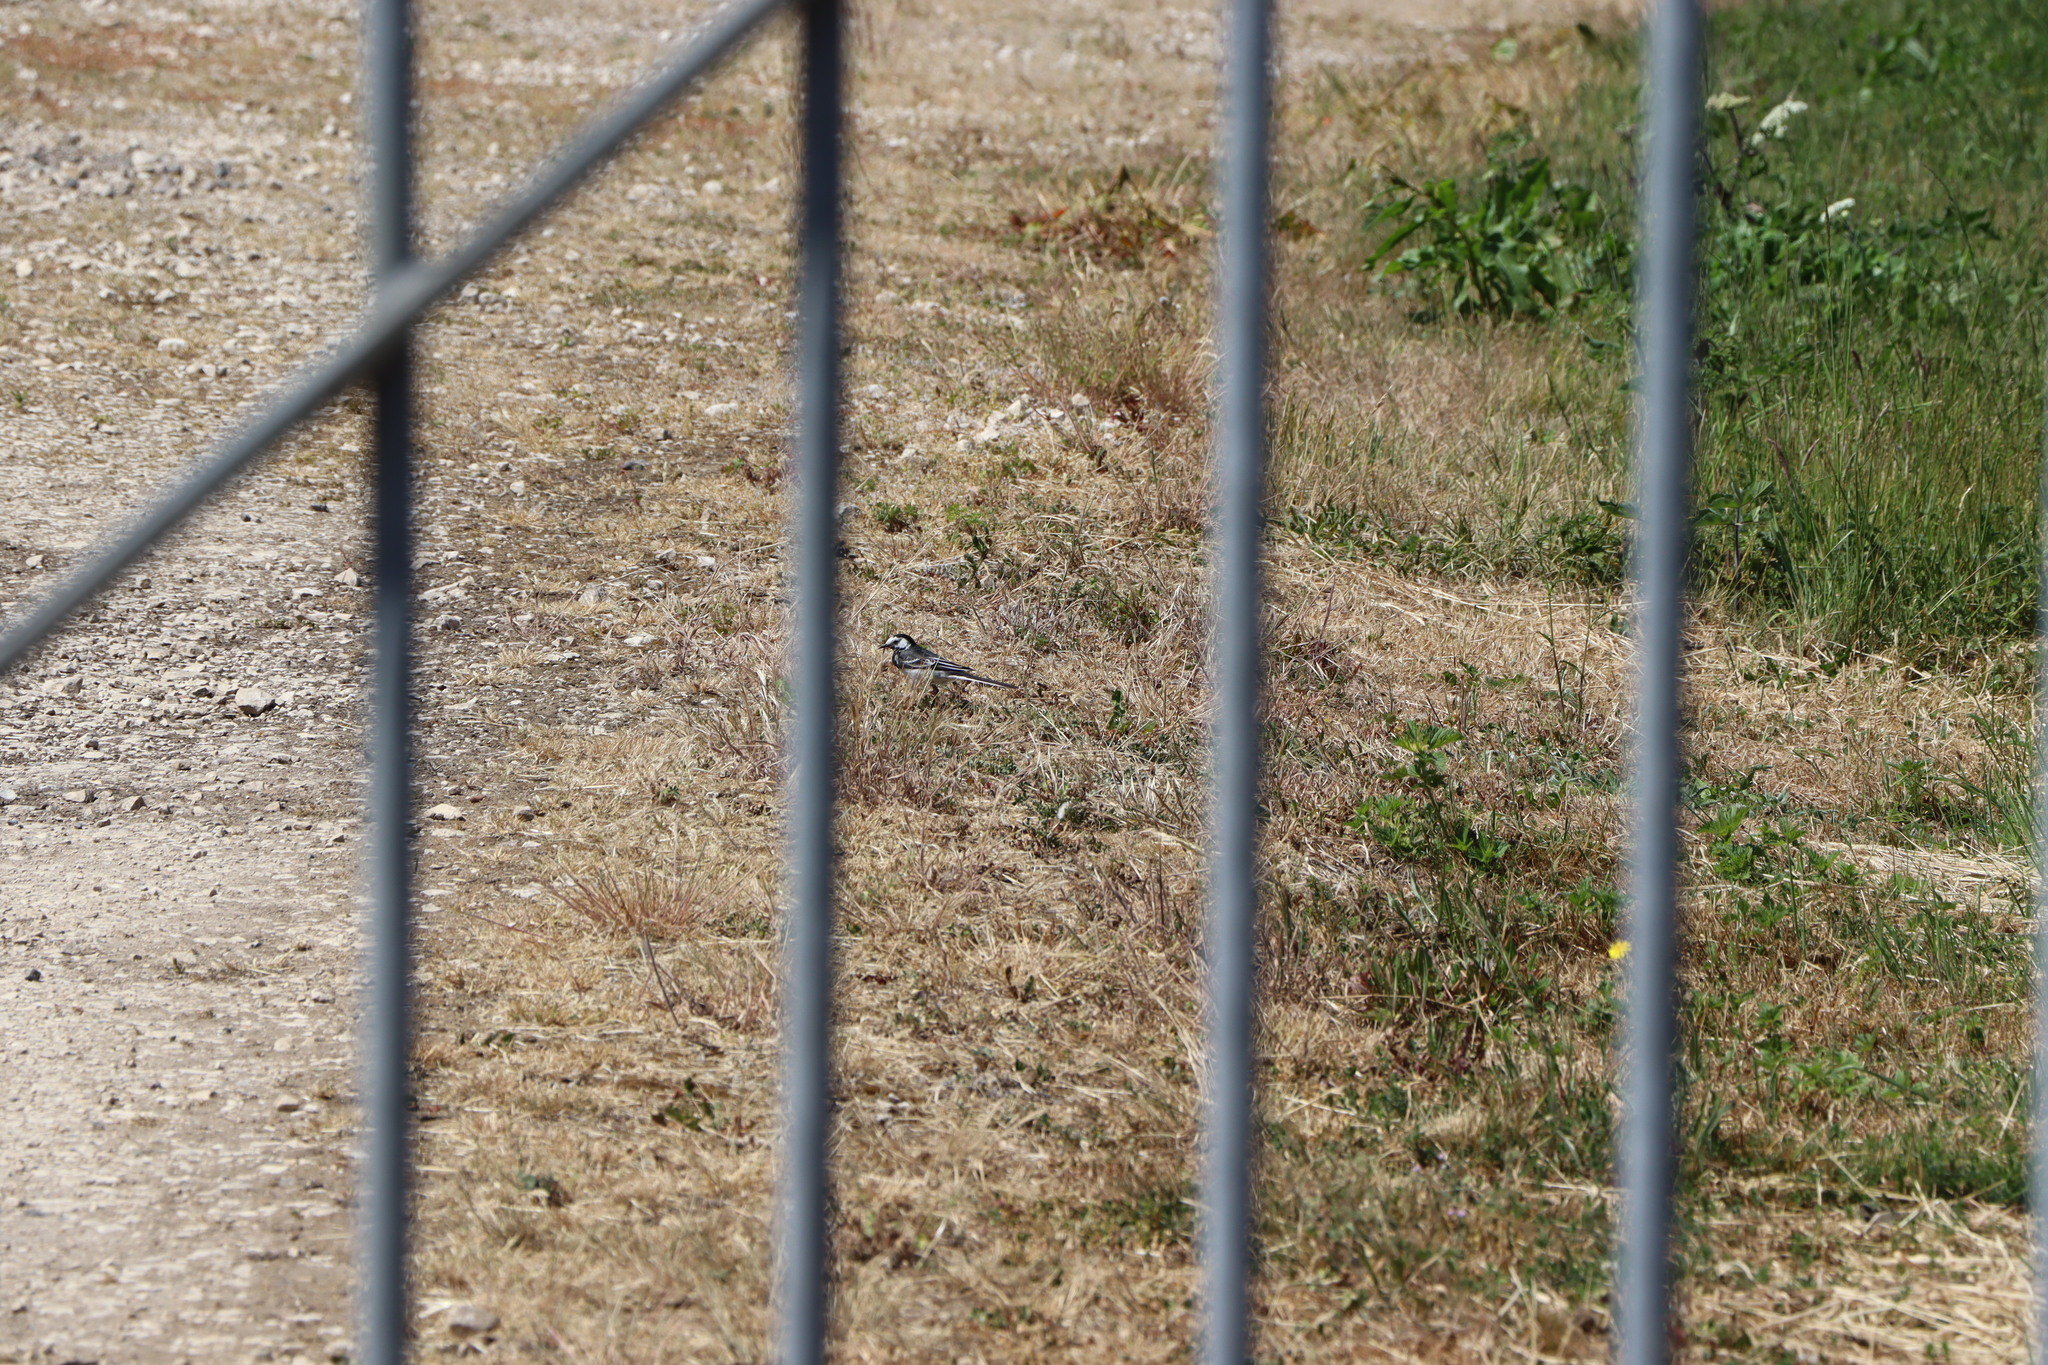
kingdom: Animalia
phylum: Chordata
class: Aves
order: Passeriformes
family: Motacillidae
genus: Motacilla
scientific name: Motacilla alba
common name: White wagtail
